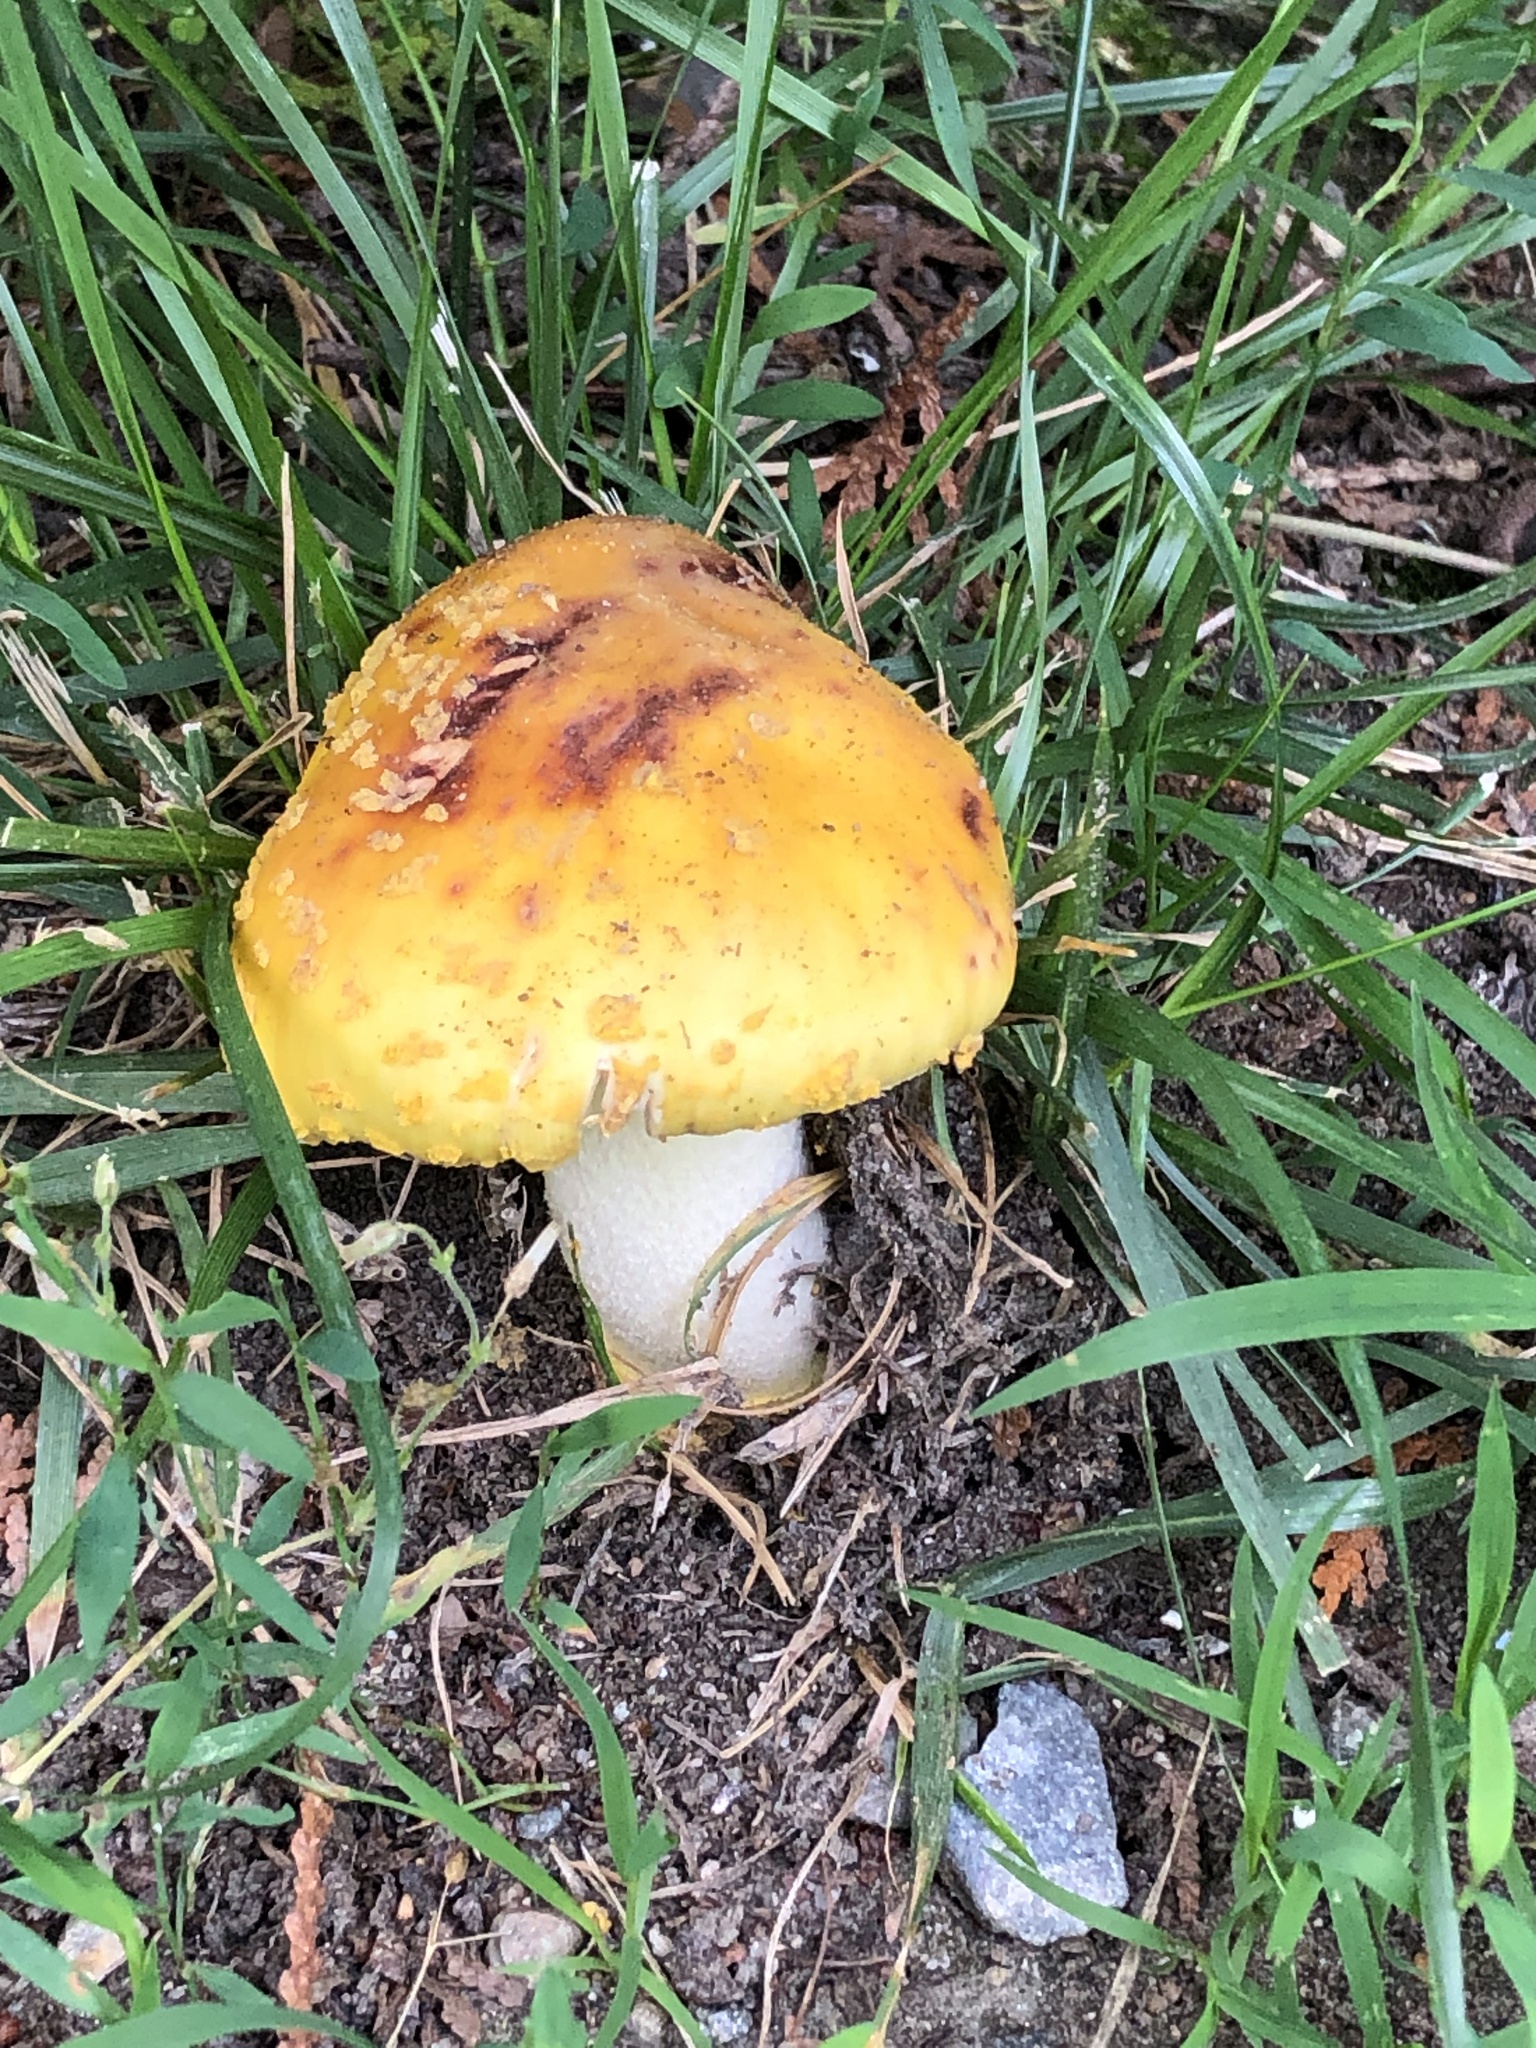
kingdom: Fungi
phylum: Basidiomycota
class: Agaricomycetes
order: Agaricales
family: Amanitaceae
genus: Amanita
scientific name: Amanita flavorubens
